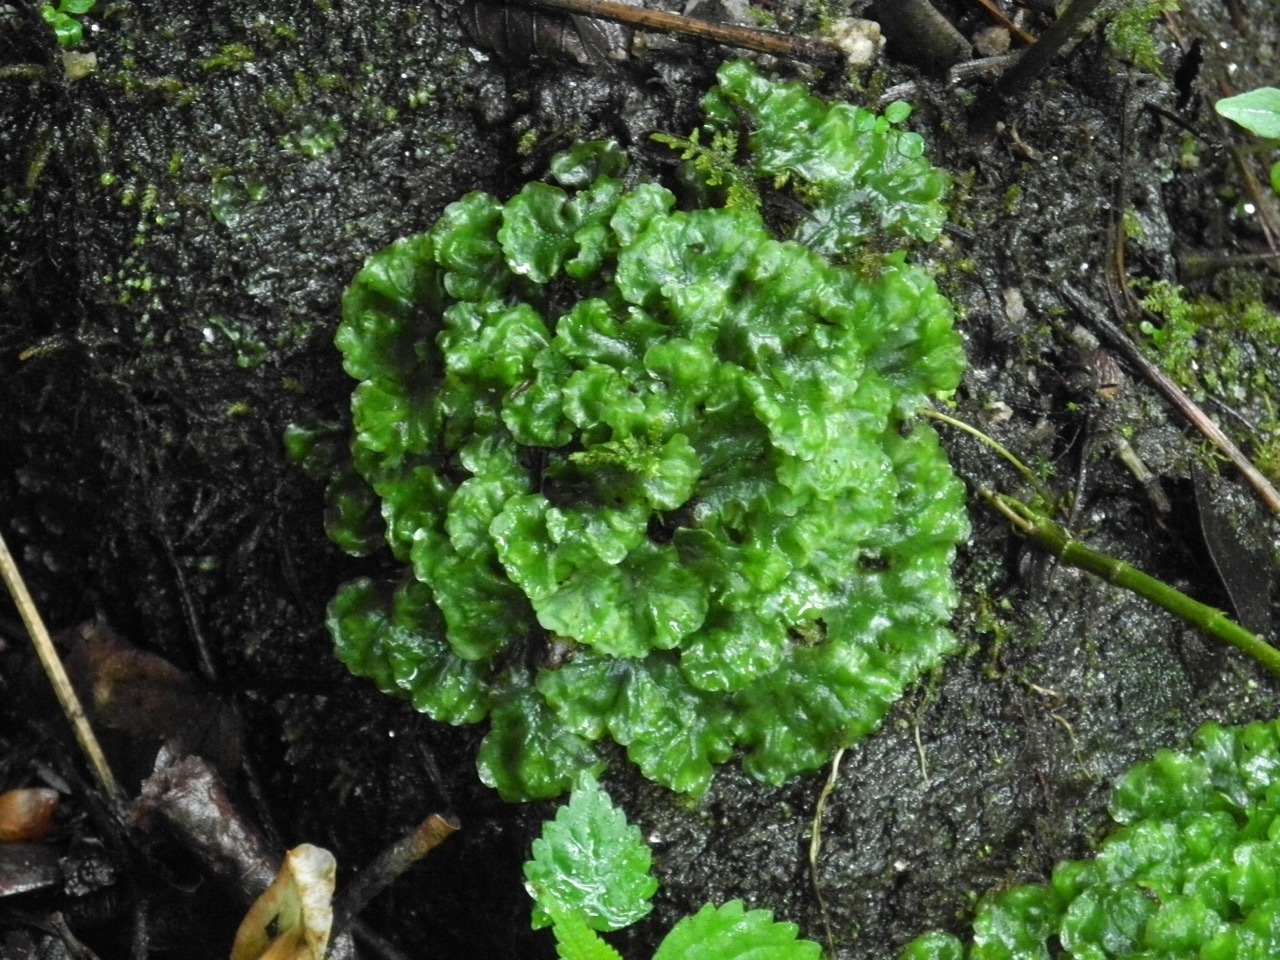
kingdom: Plantae
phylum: Marchantiophyta
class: Jungermanniopsida
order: Pelliales
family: Pelliaceae
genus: Pellia
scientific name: Pellia epiphylla
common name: Common pellia
